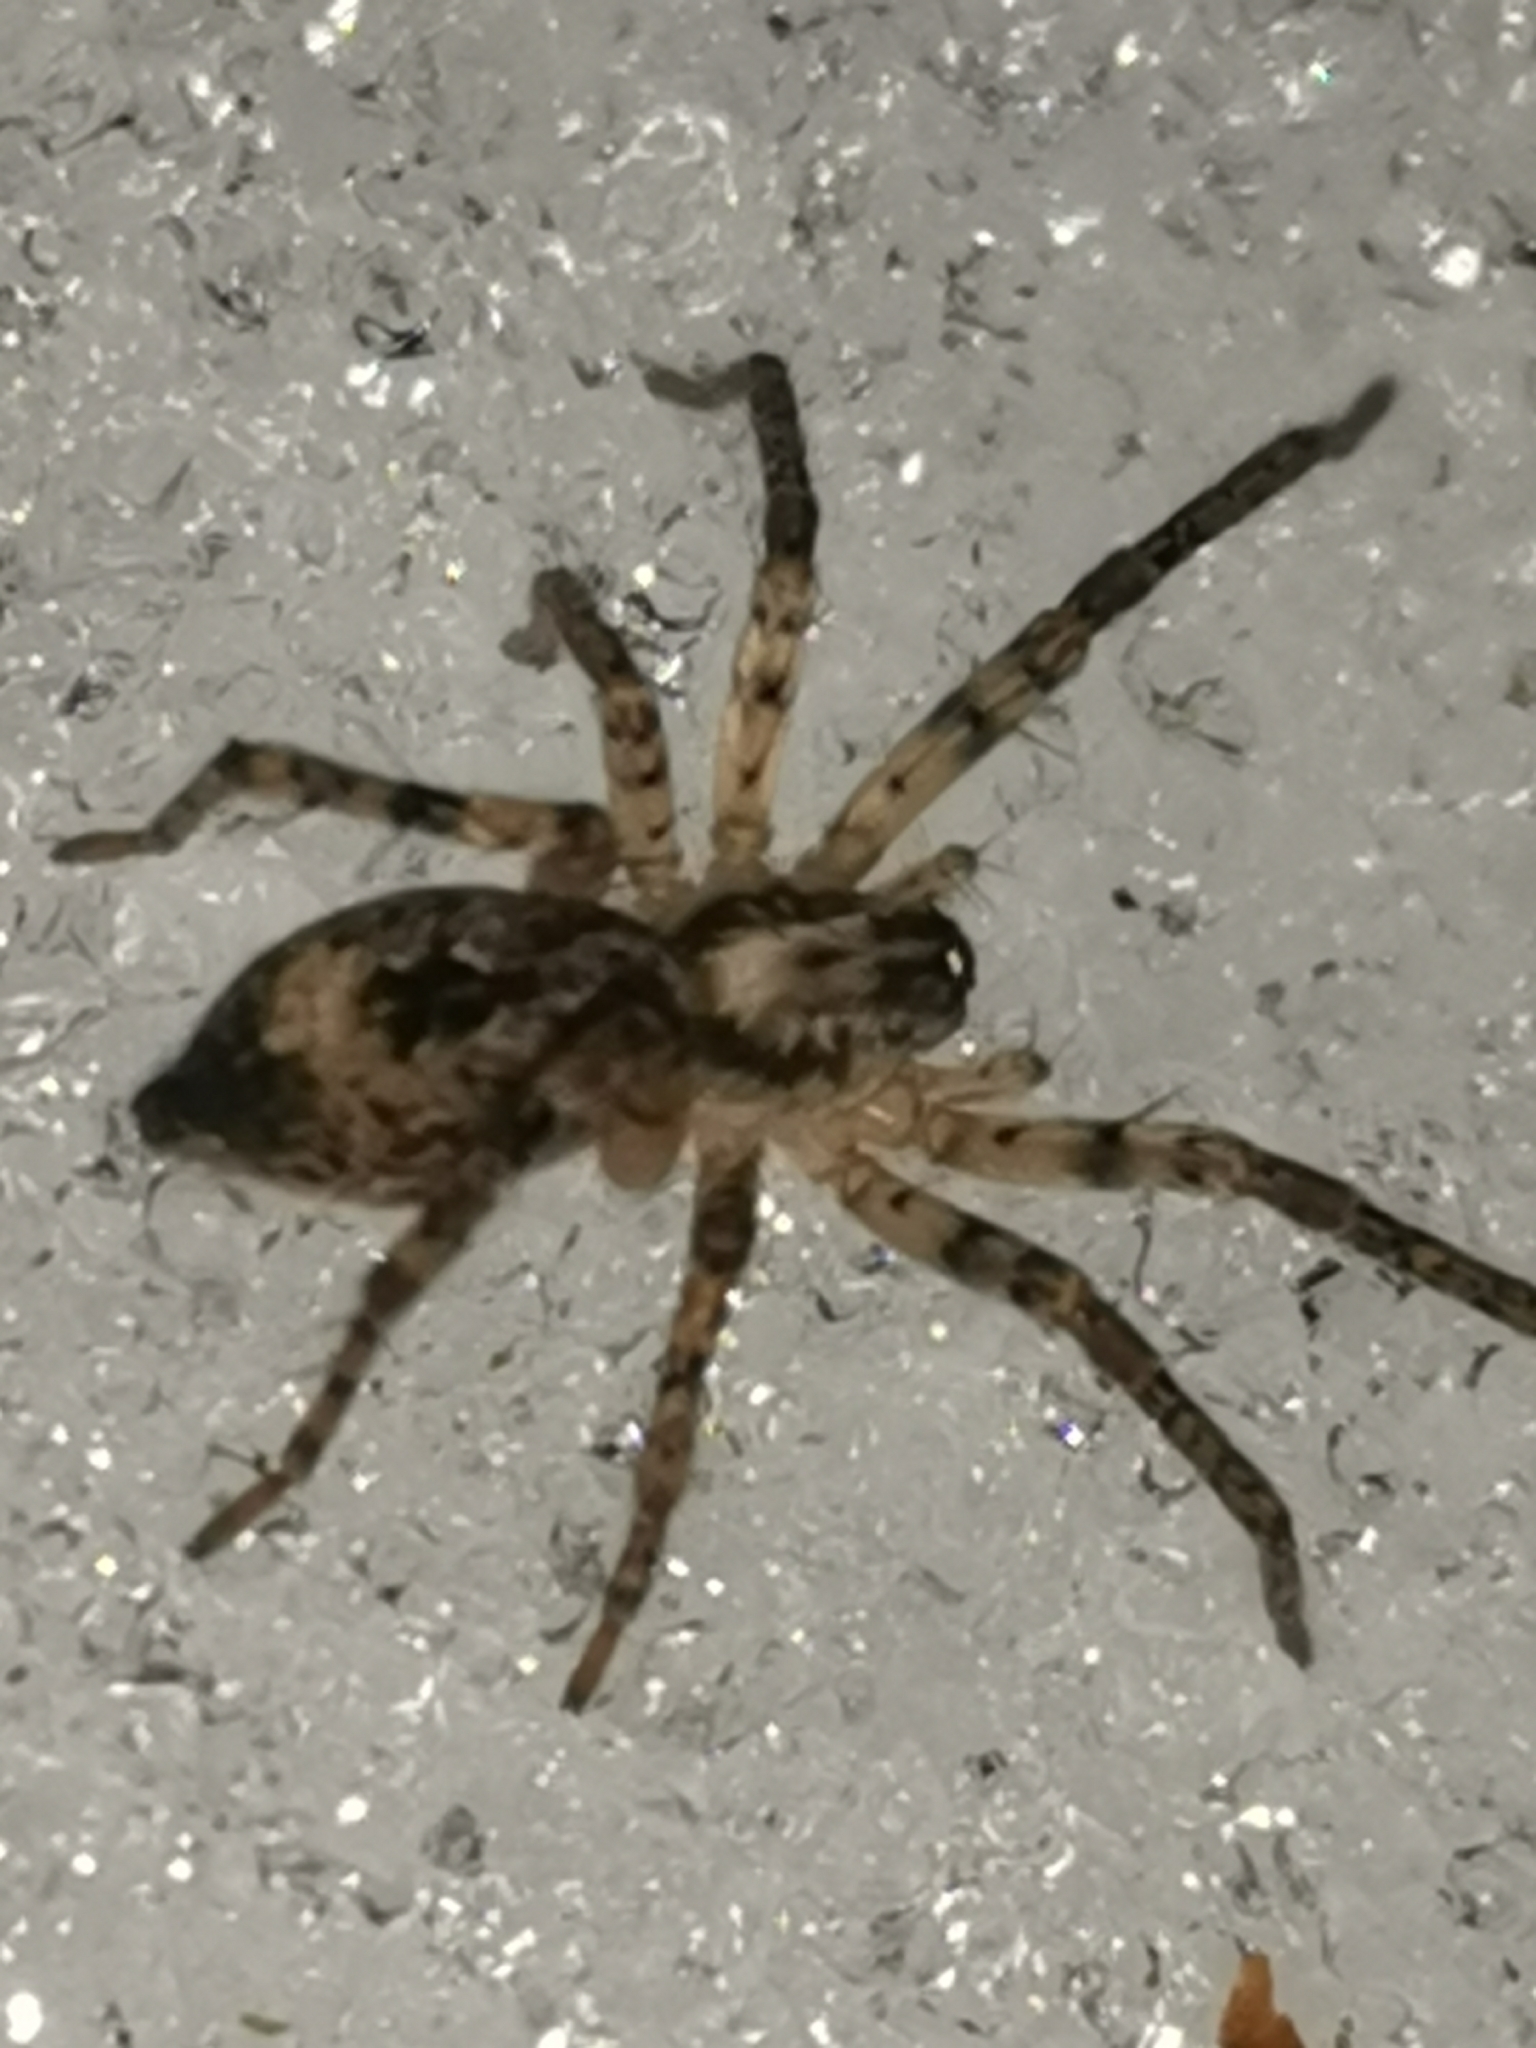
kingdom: Animalia
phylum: Arthropoda
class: Arachnida
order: Araneae
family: Anyphaenidae
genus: Anyphaena
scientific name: Anyphaena accentuata
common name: Buzzing spider
